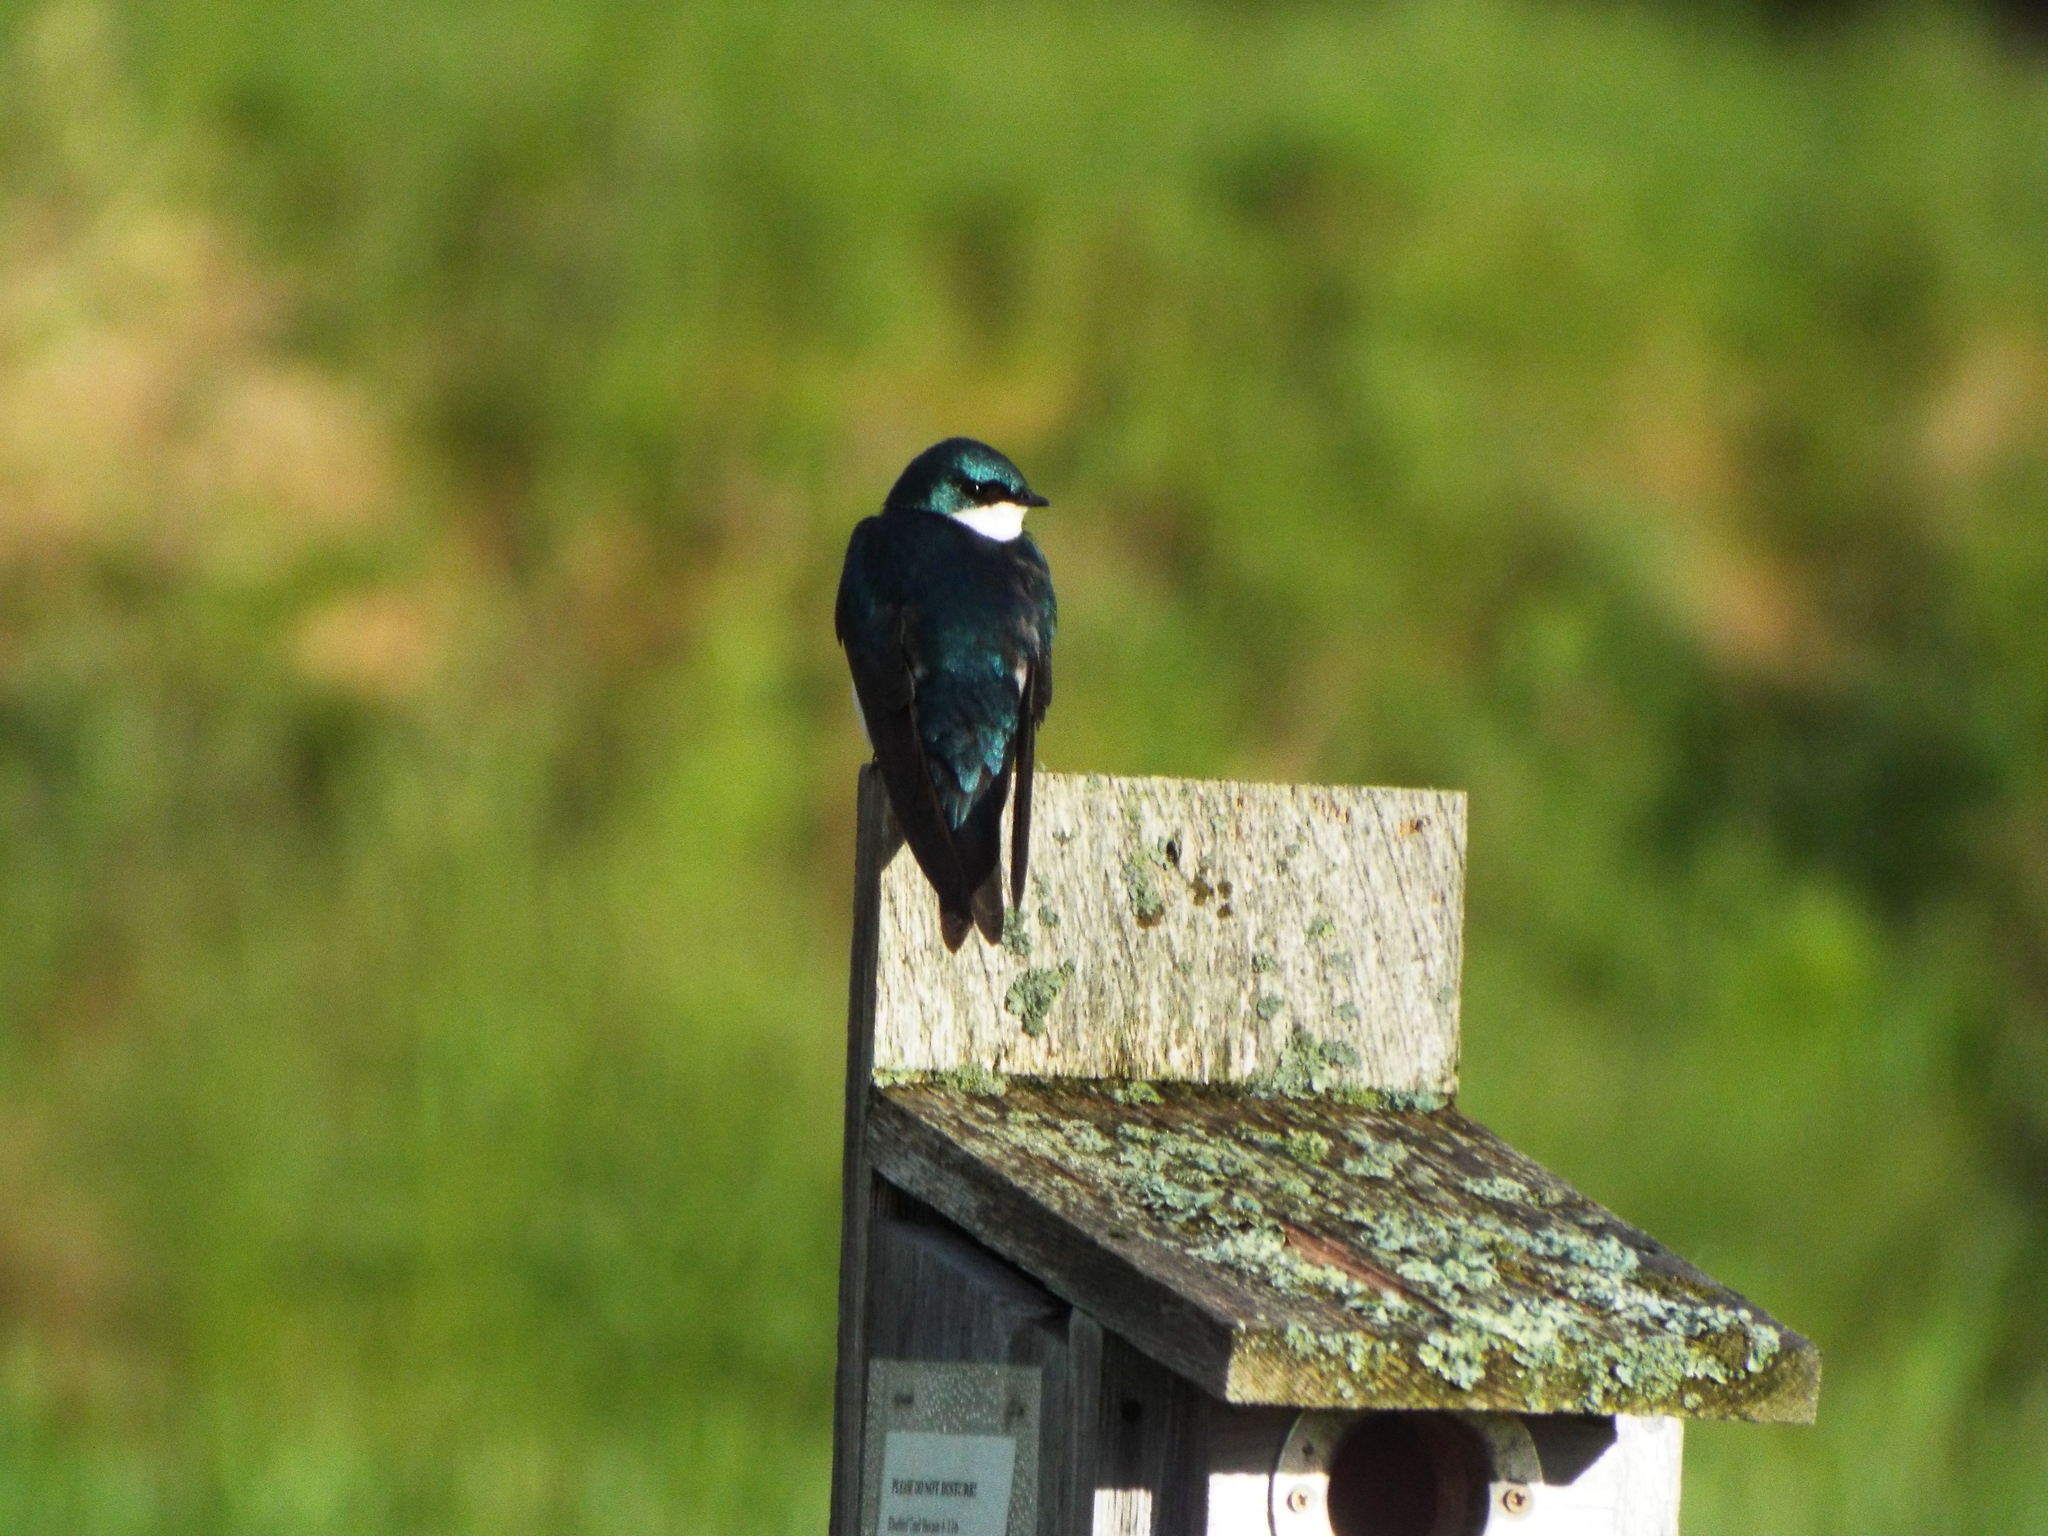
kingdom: Animalia
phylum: Chordata
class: Aves
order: Passeriformes
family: Hirundinidae
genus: Tachycineta
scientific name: Tachycineta bicolor
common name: Tree swallow
